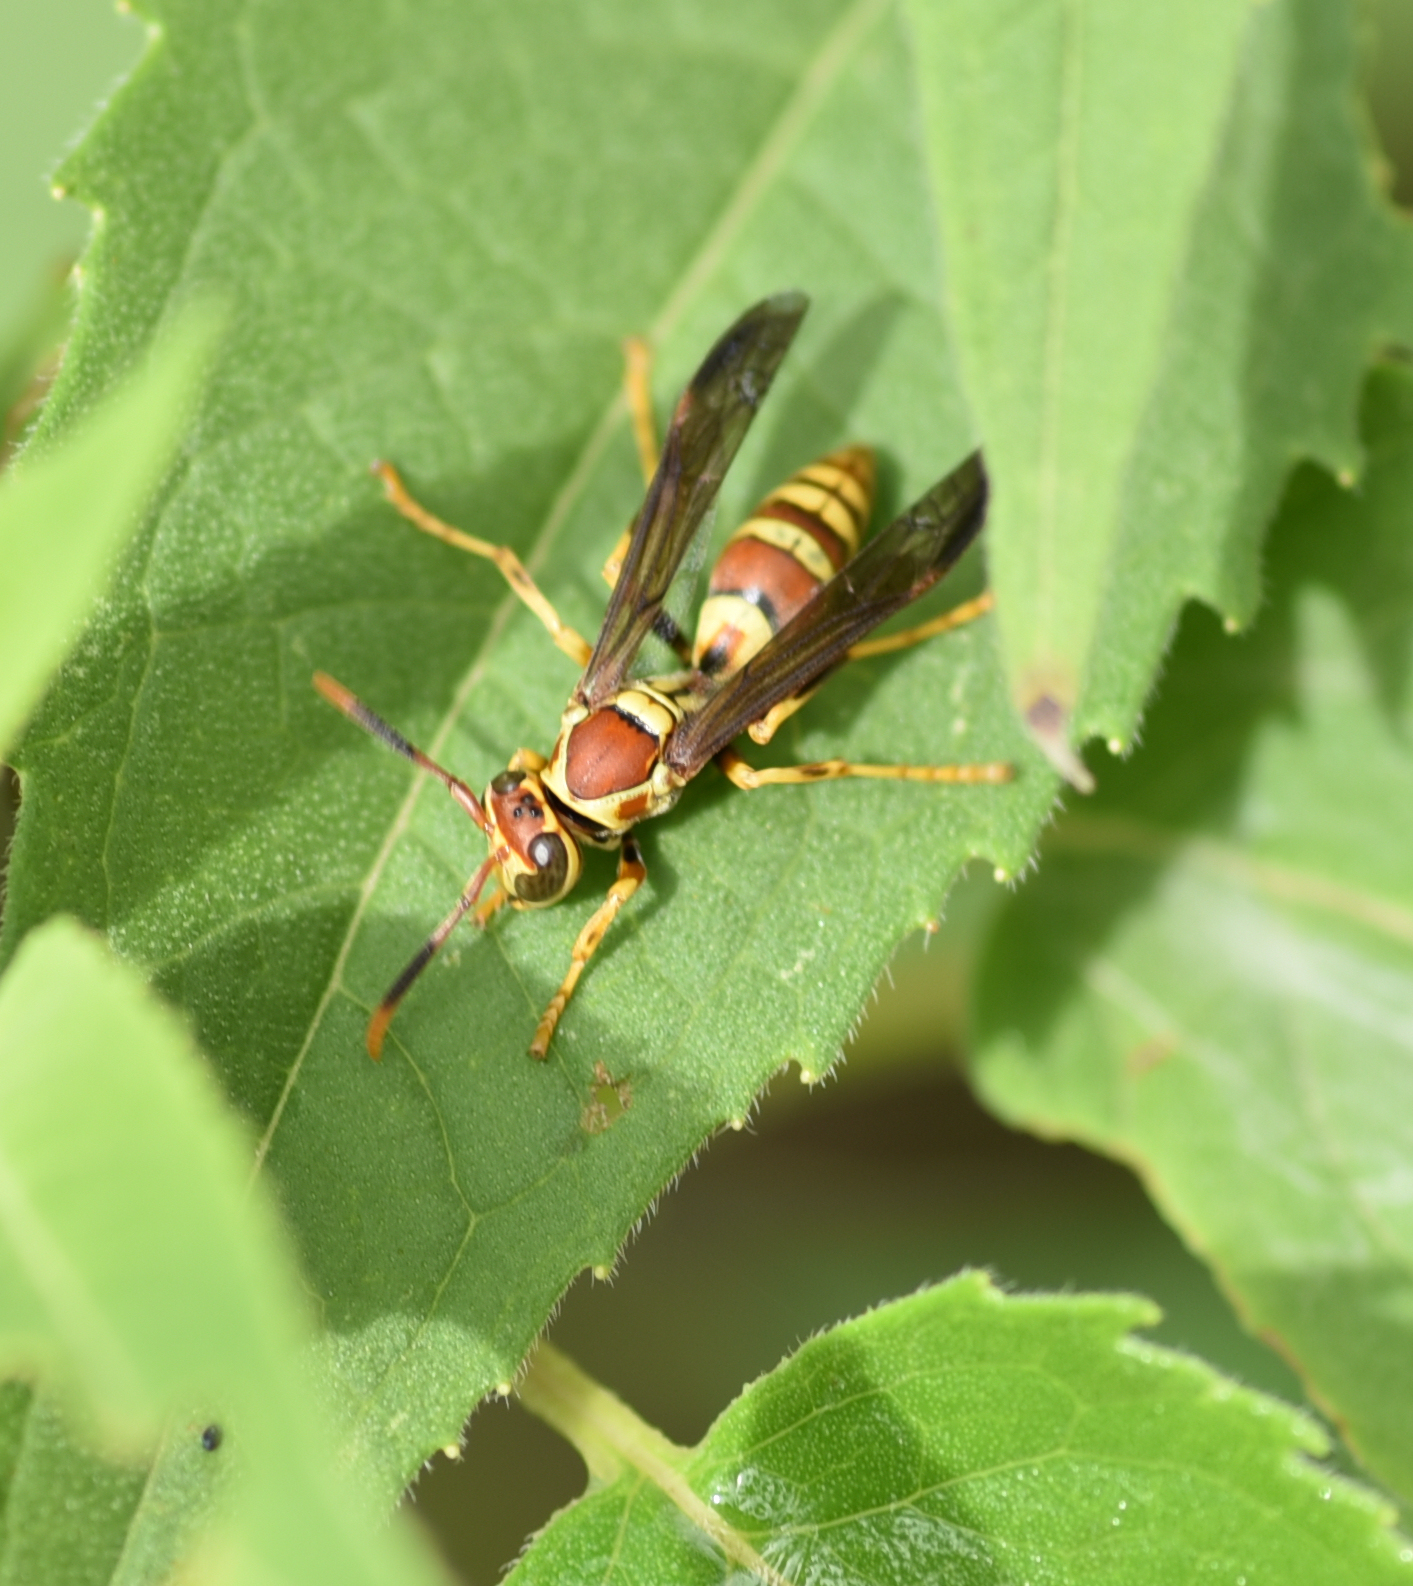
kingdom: Animalia
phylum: Arthropoda
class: Insecta
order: Hymenoptera
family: Eumenidae
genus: Polistes
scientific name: Polistes exclamans
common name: Paper wasp
